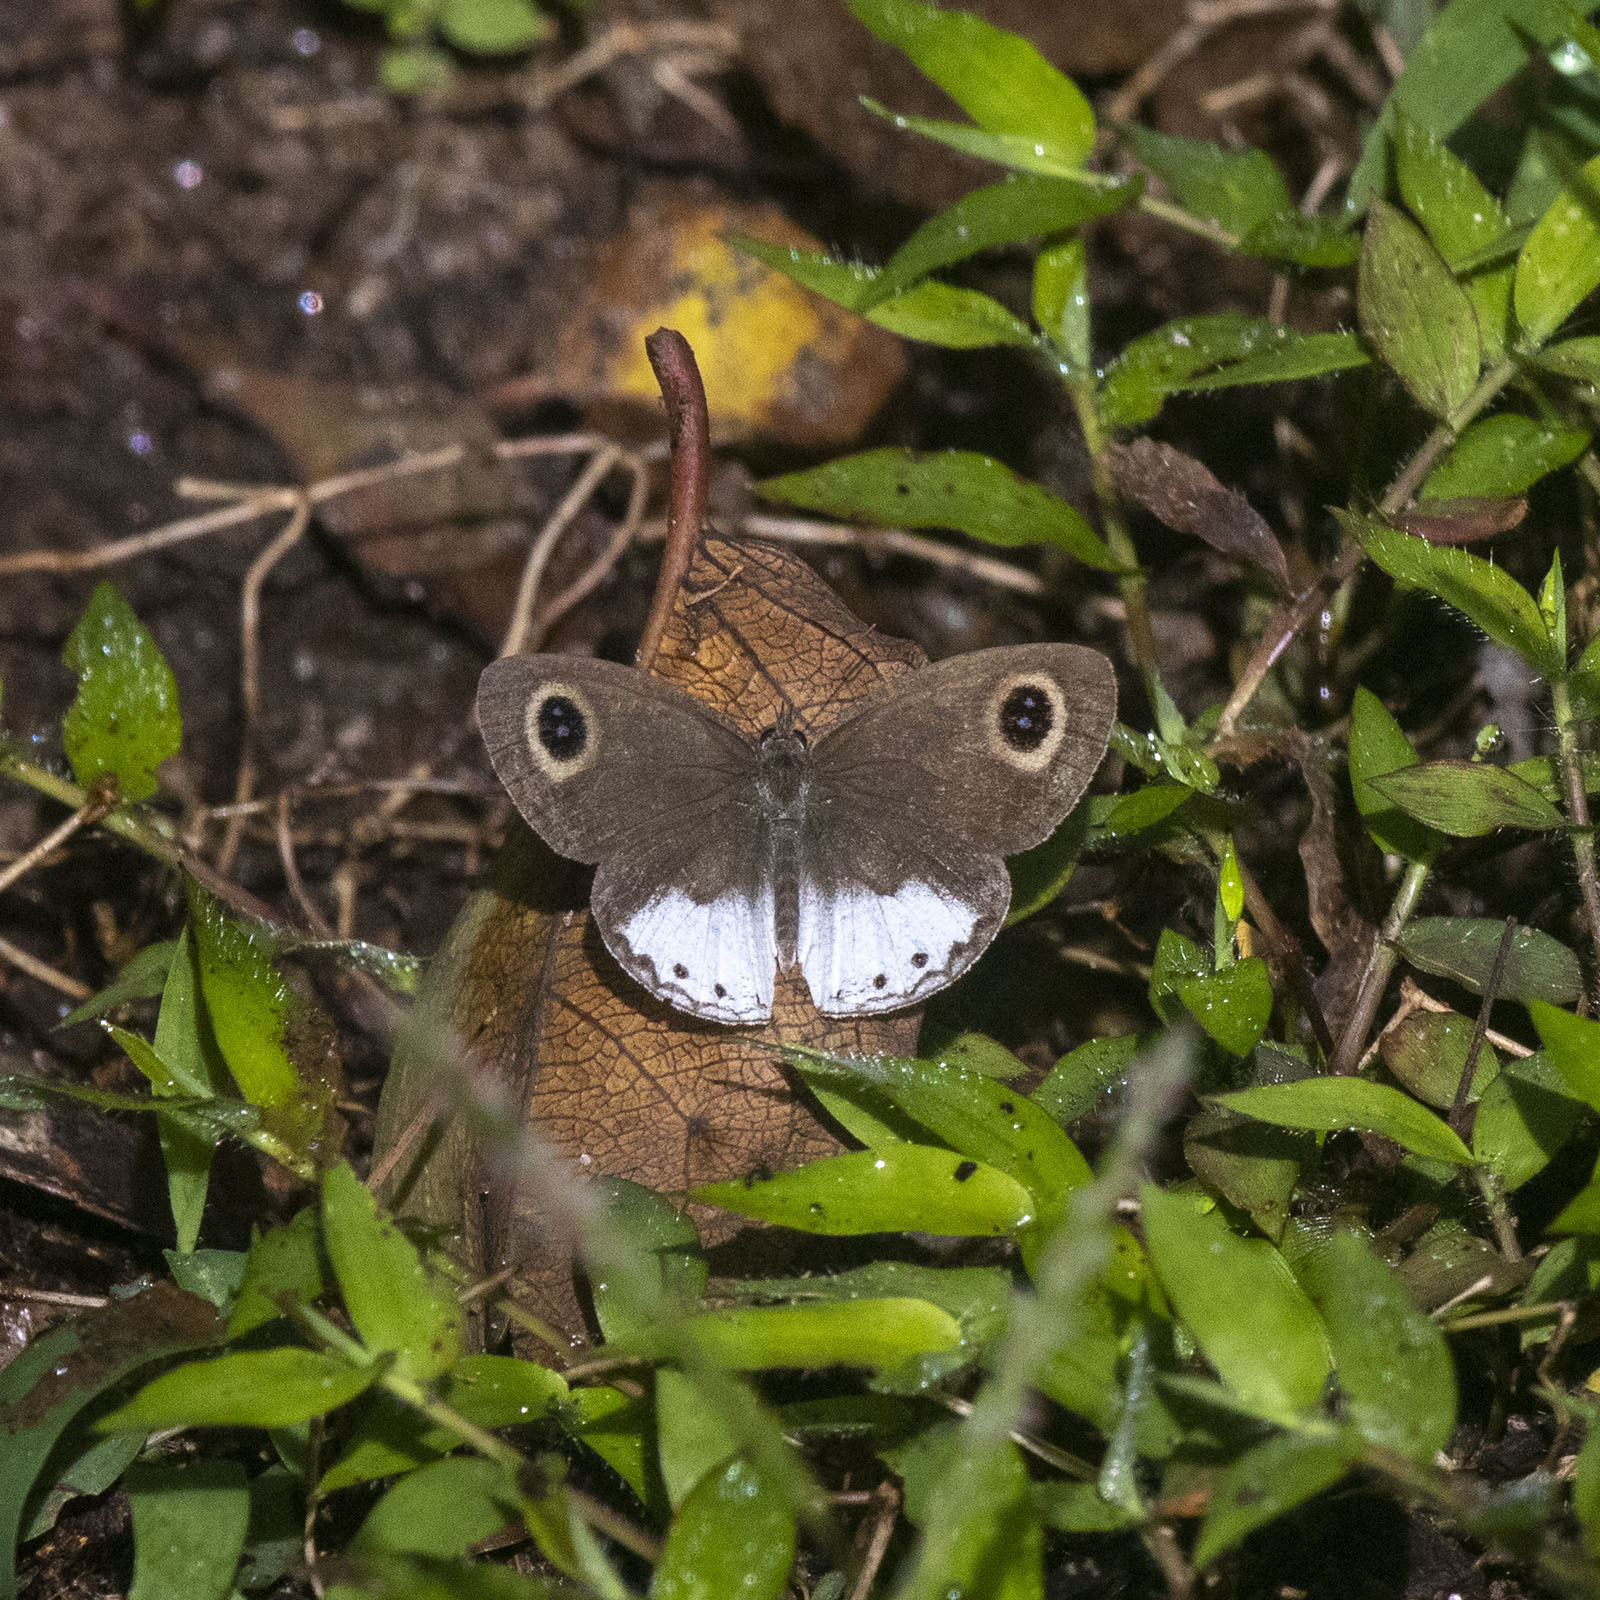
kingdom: Animalia
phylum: Arthropoda
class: Insecta
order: Lepidoptera
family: Nymphalidae
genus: Ypthima
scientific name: Ypthima ceylonica
